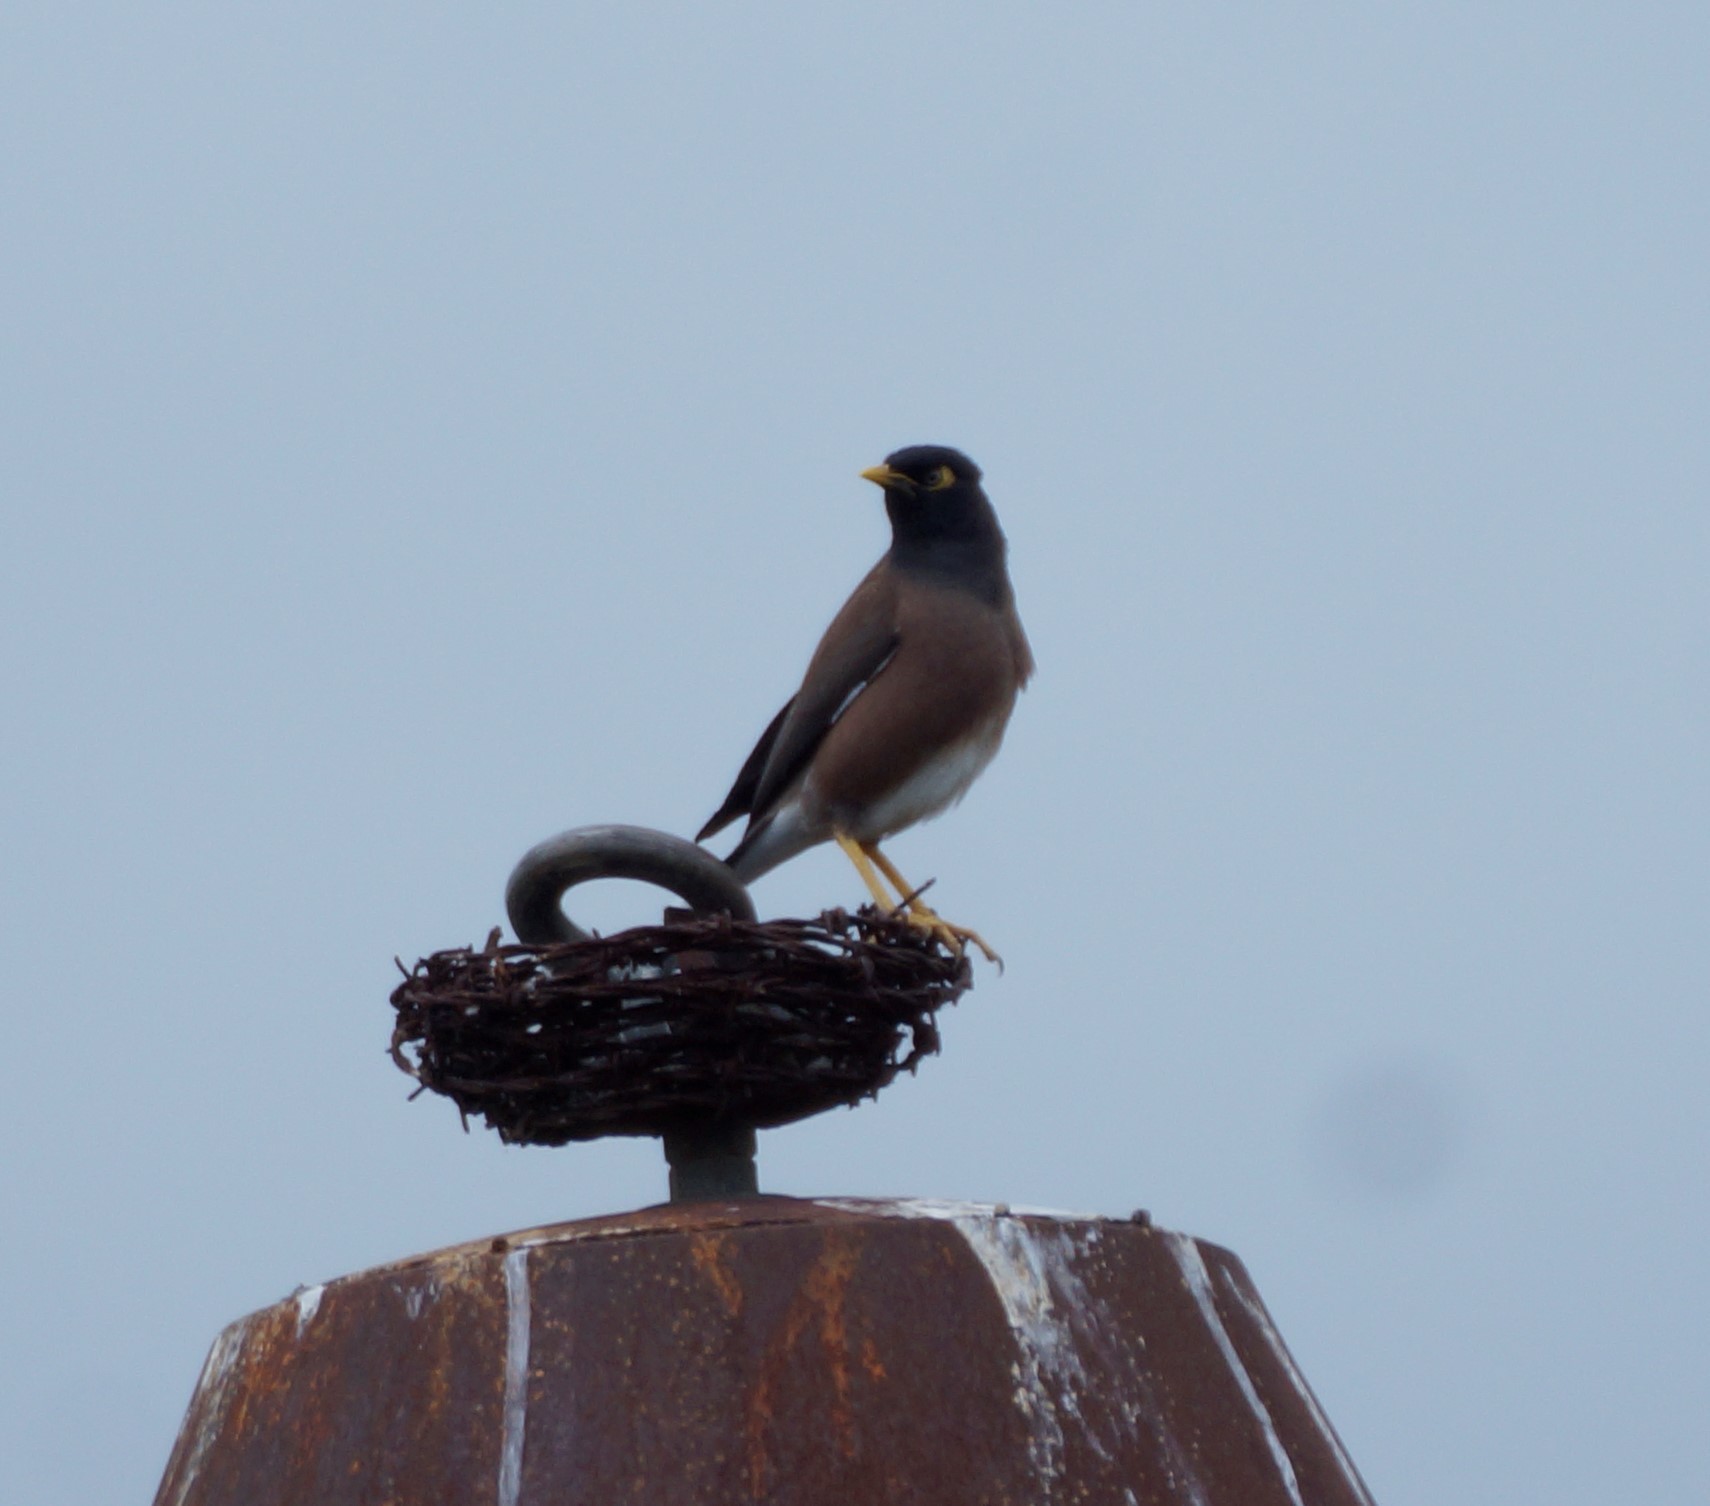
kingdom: Animalia
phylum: Chordata
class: Aves
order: Passeriformes
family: Sturnidae
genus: Acridotheres
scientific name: Acridotheres tristis
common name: Common myna
